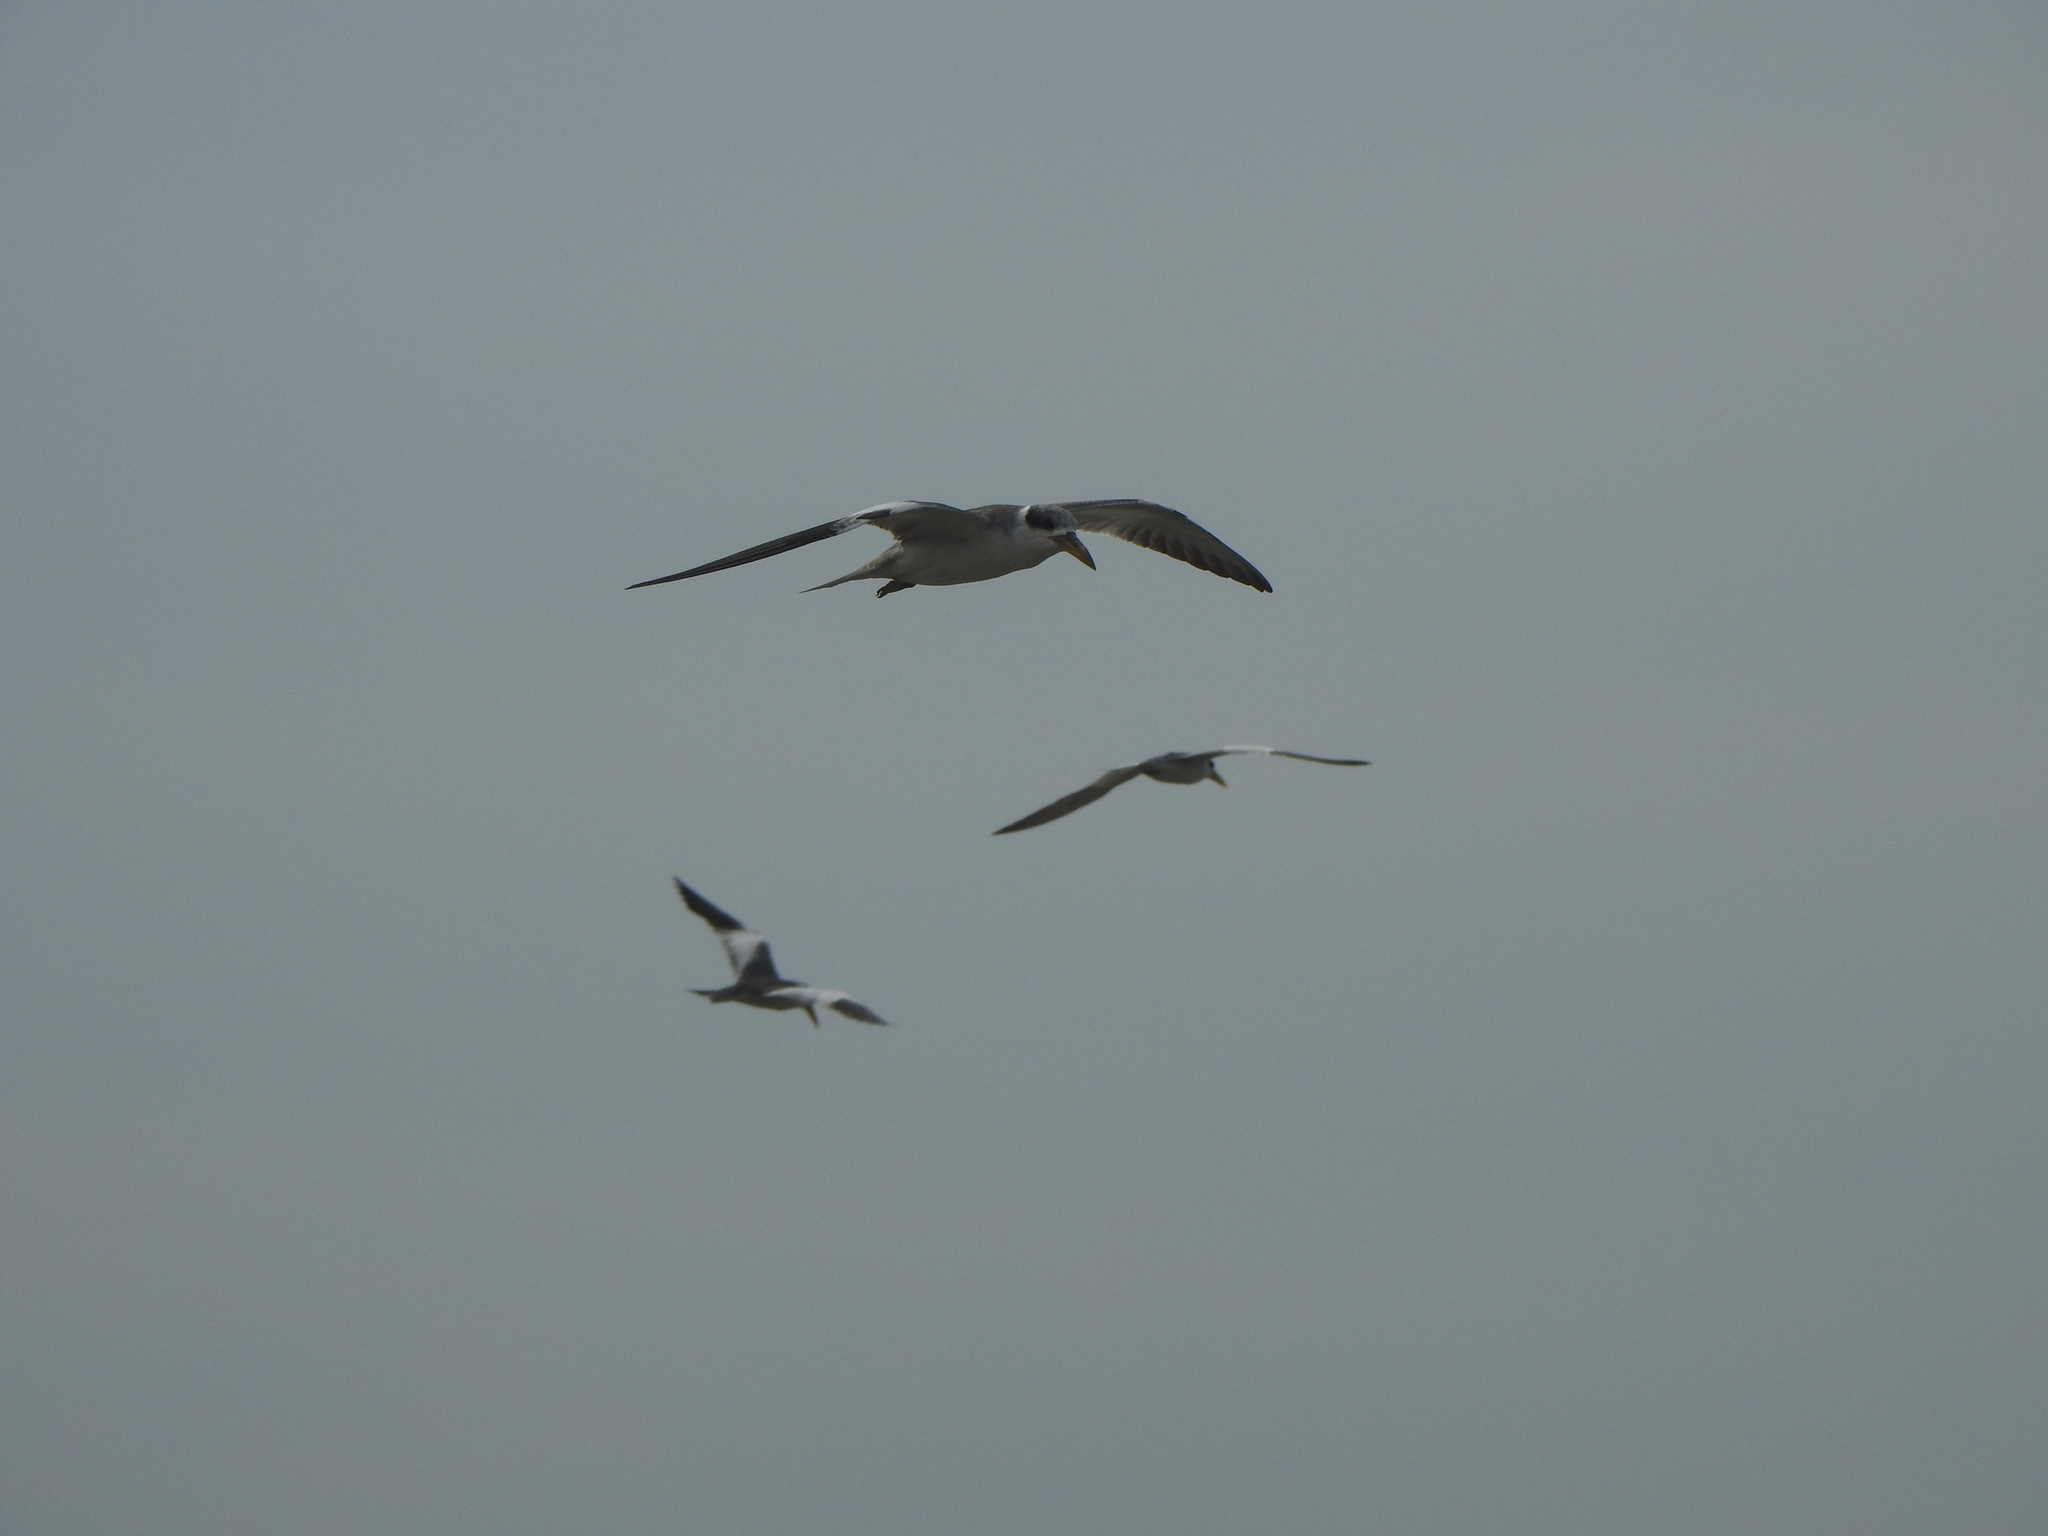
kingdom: Animalia
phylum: Chordata
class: Aves
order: Charadriiformes
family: Laridae
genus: Phaetusa
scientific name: Phaetusa simplex
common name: Large-billed tern
